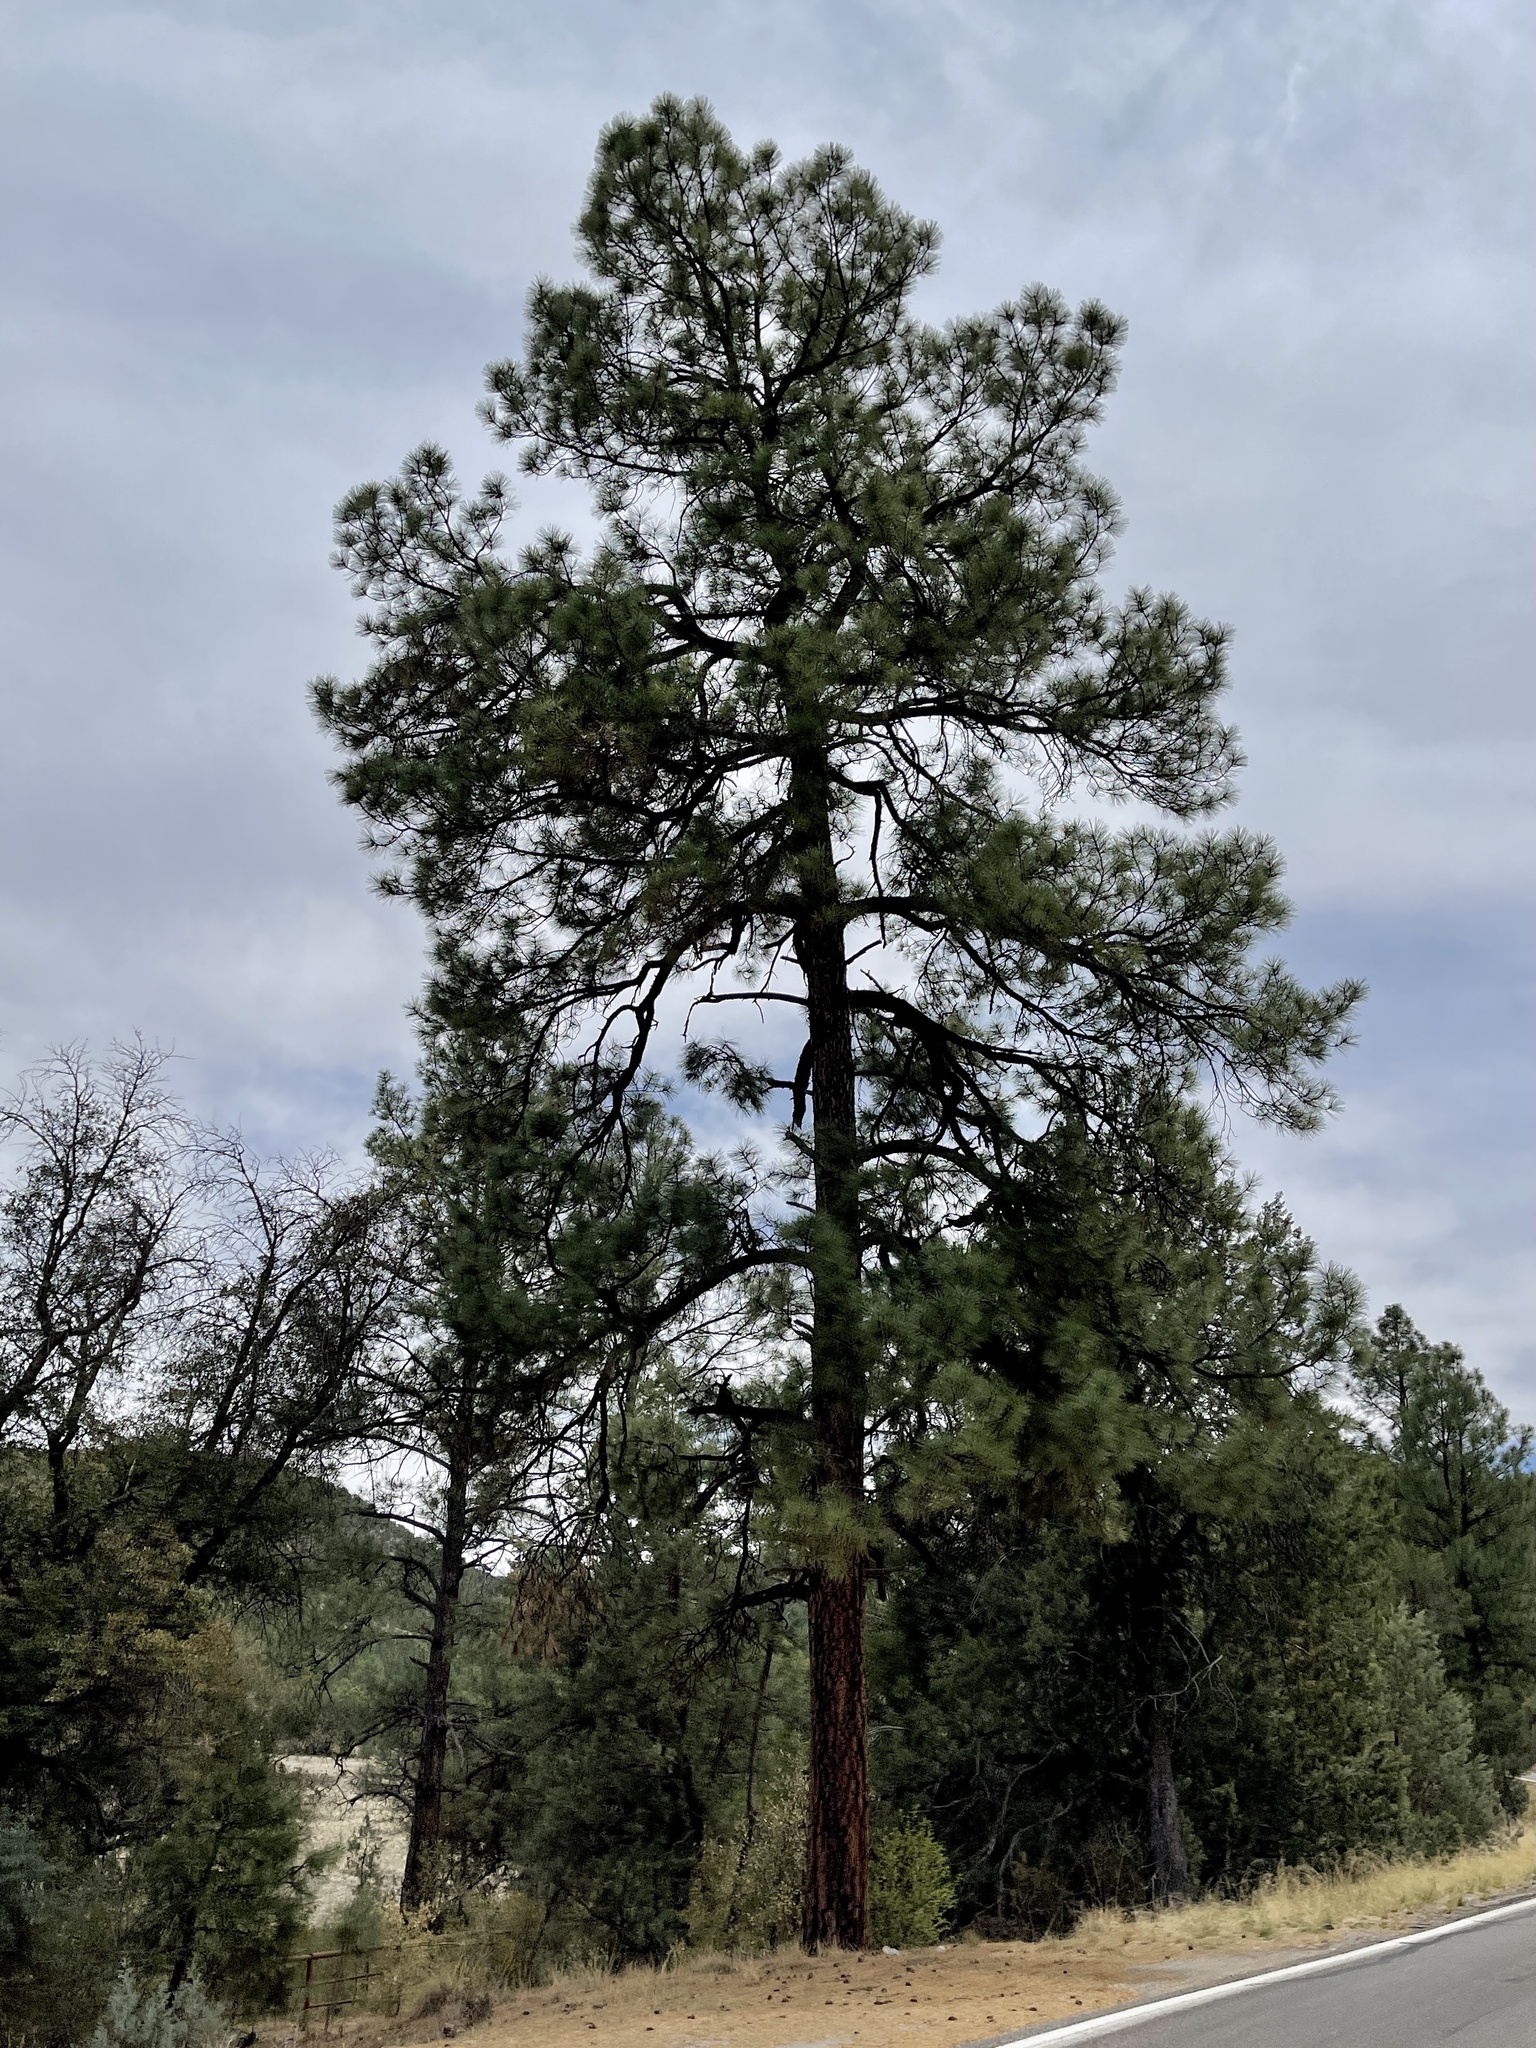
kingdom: Plantae
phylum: Tracheophyta
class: Pinopsida
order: Pinales
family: Pinaceae
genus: Pinus
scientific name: Pinus ponderosa
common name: Western yellow-pine
